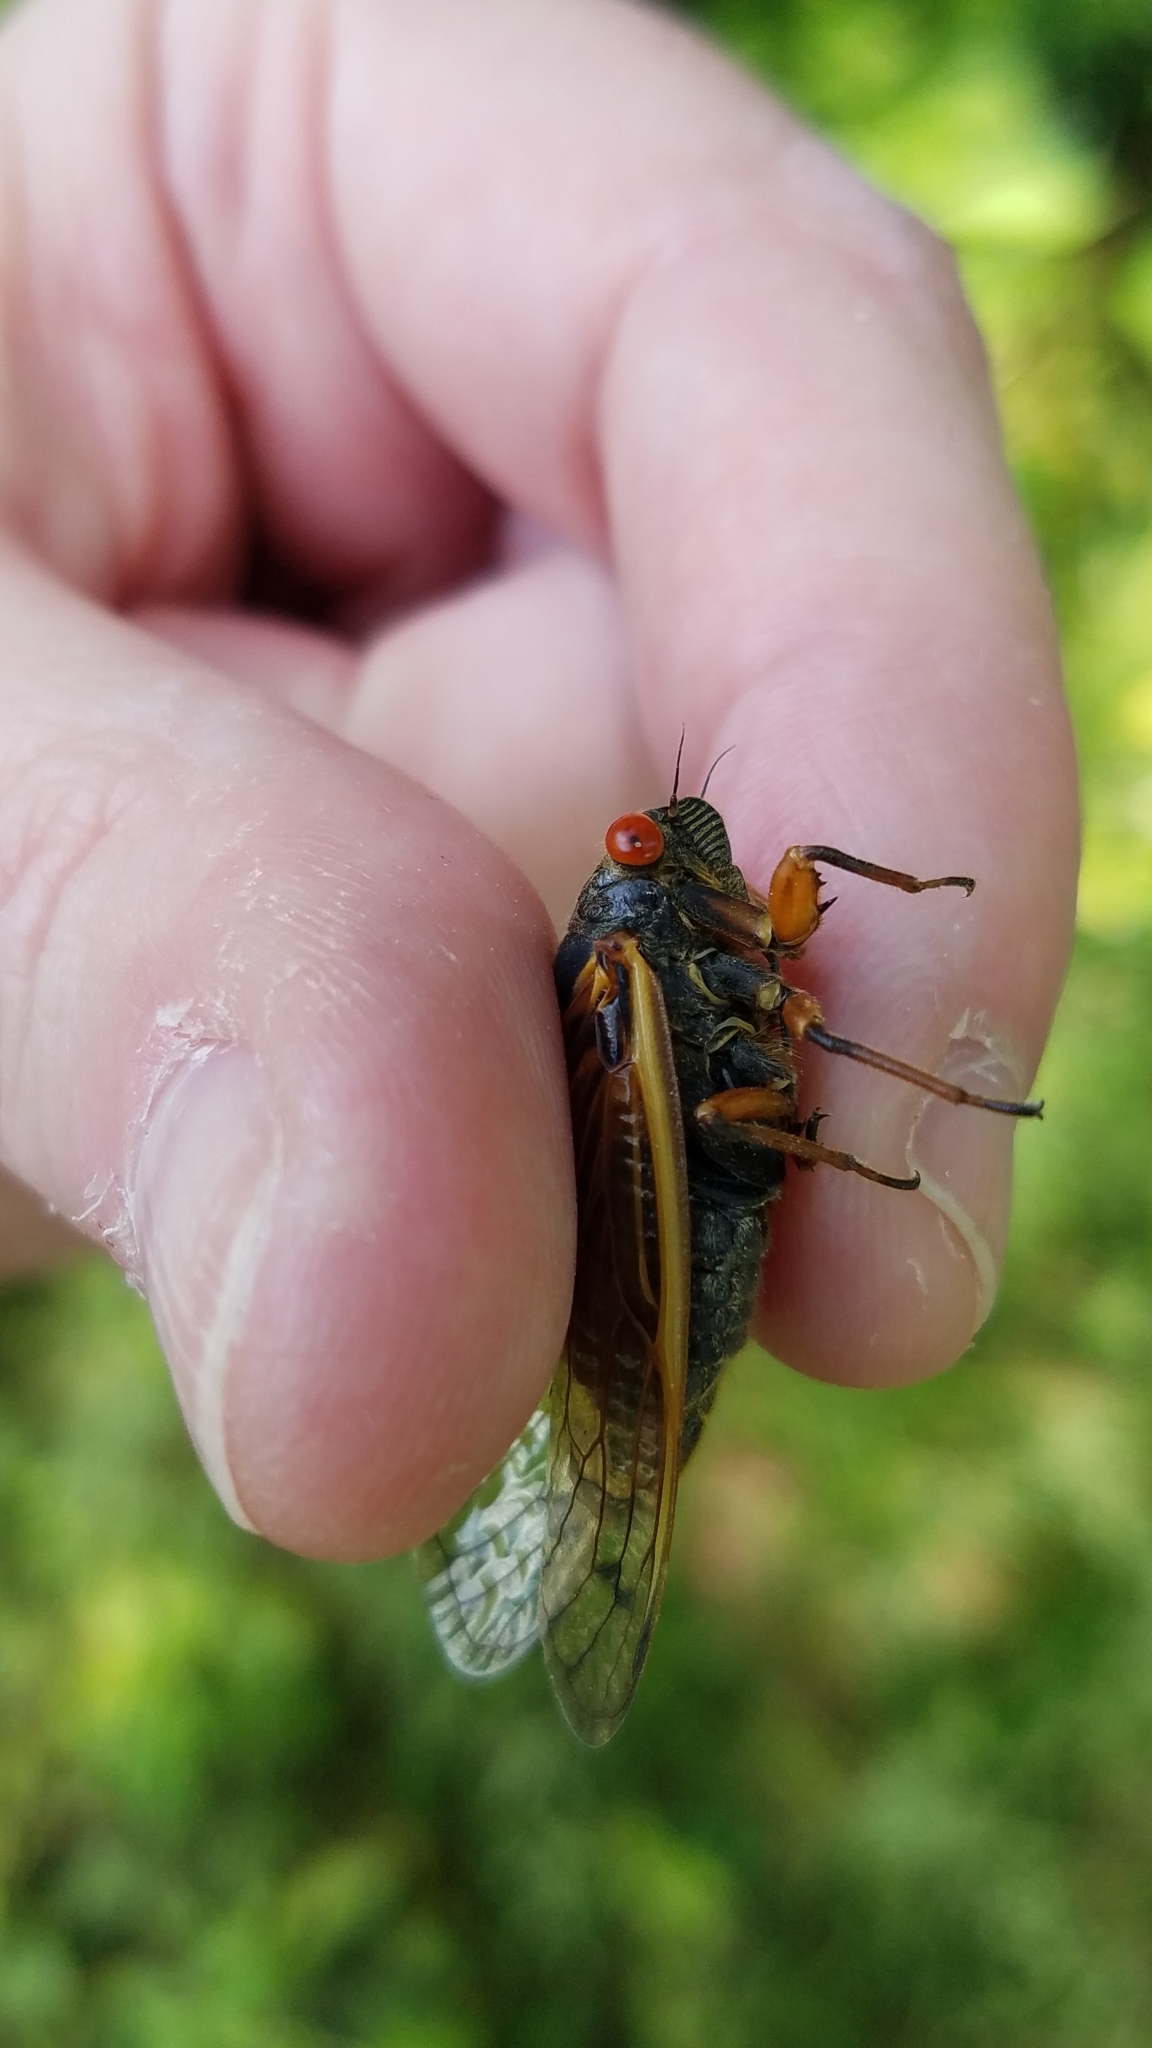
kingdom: Animalia
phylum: Arthropoda
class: Insecta
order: Hemiptera
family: Cicadidae
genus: Magicicada
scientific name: Magicicada cassini
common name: Cassin's 17-year cicada
